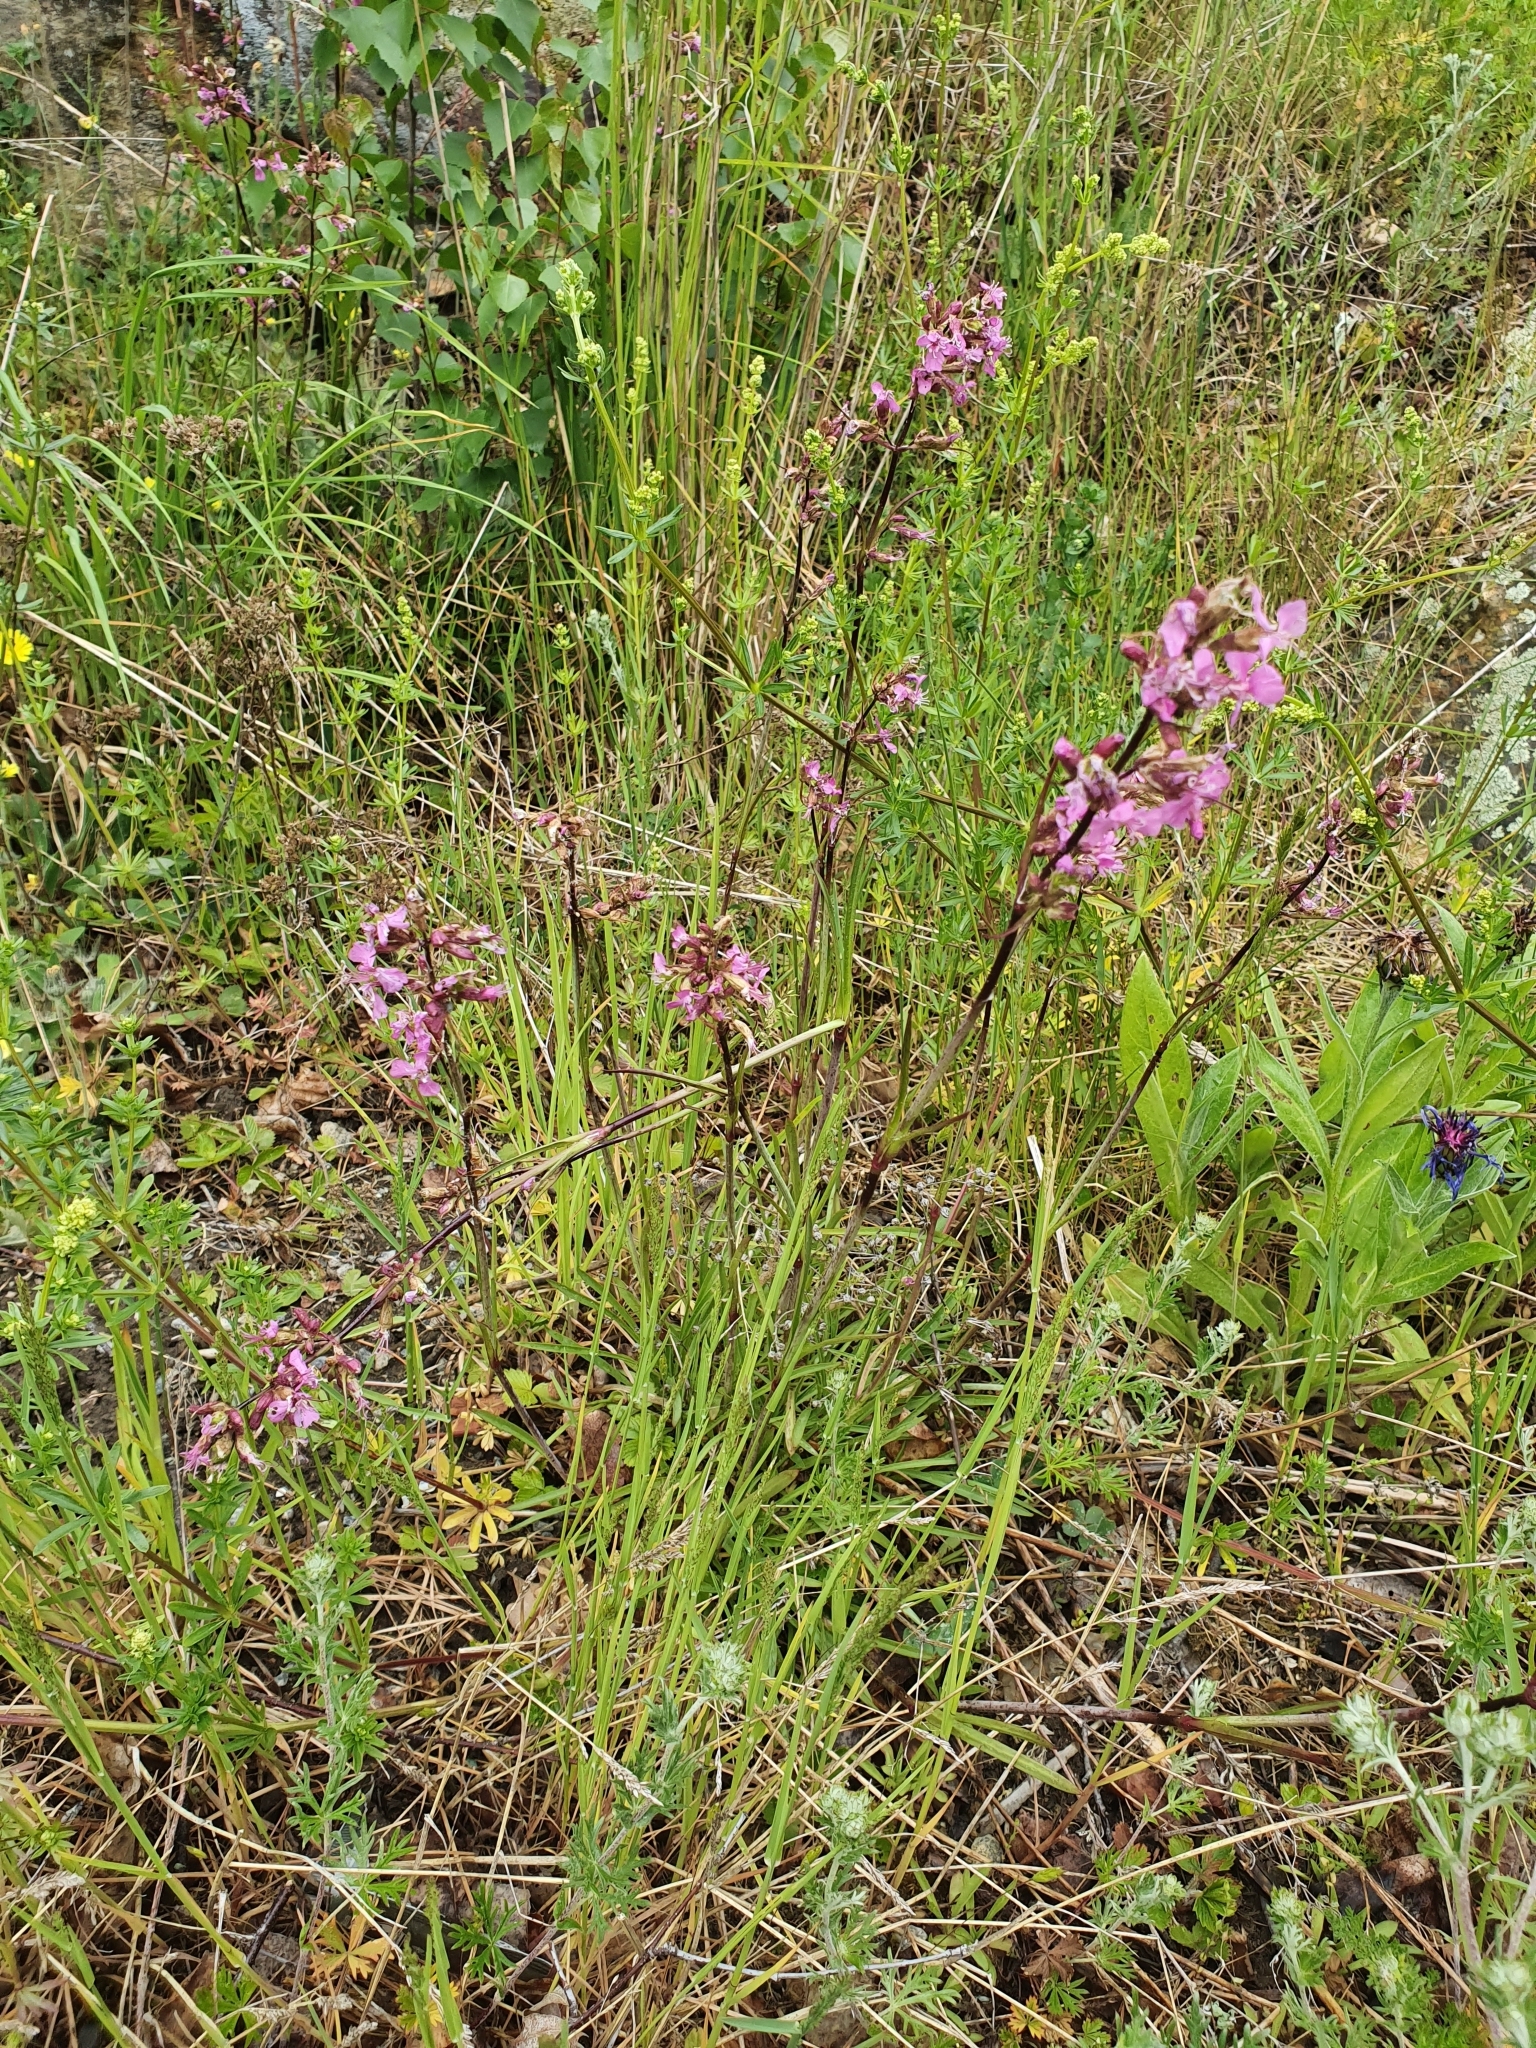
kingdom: Plantae
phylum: Tracheophyta
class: Magnoliopsida
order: Caryophyllales
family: Caryophyllaceae
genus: Viscaria
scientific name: Viscaria vulgaris
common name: Clammy campion
